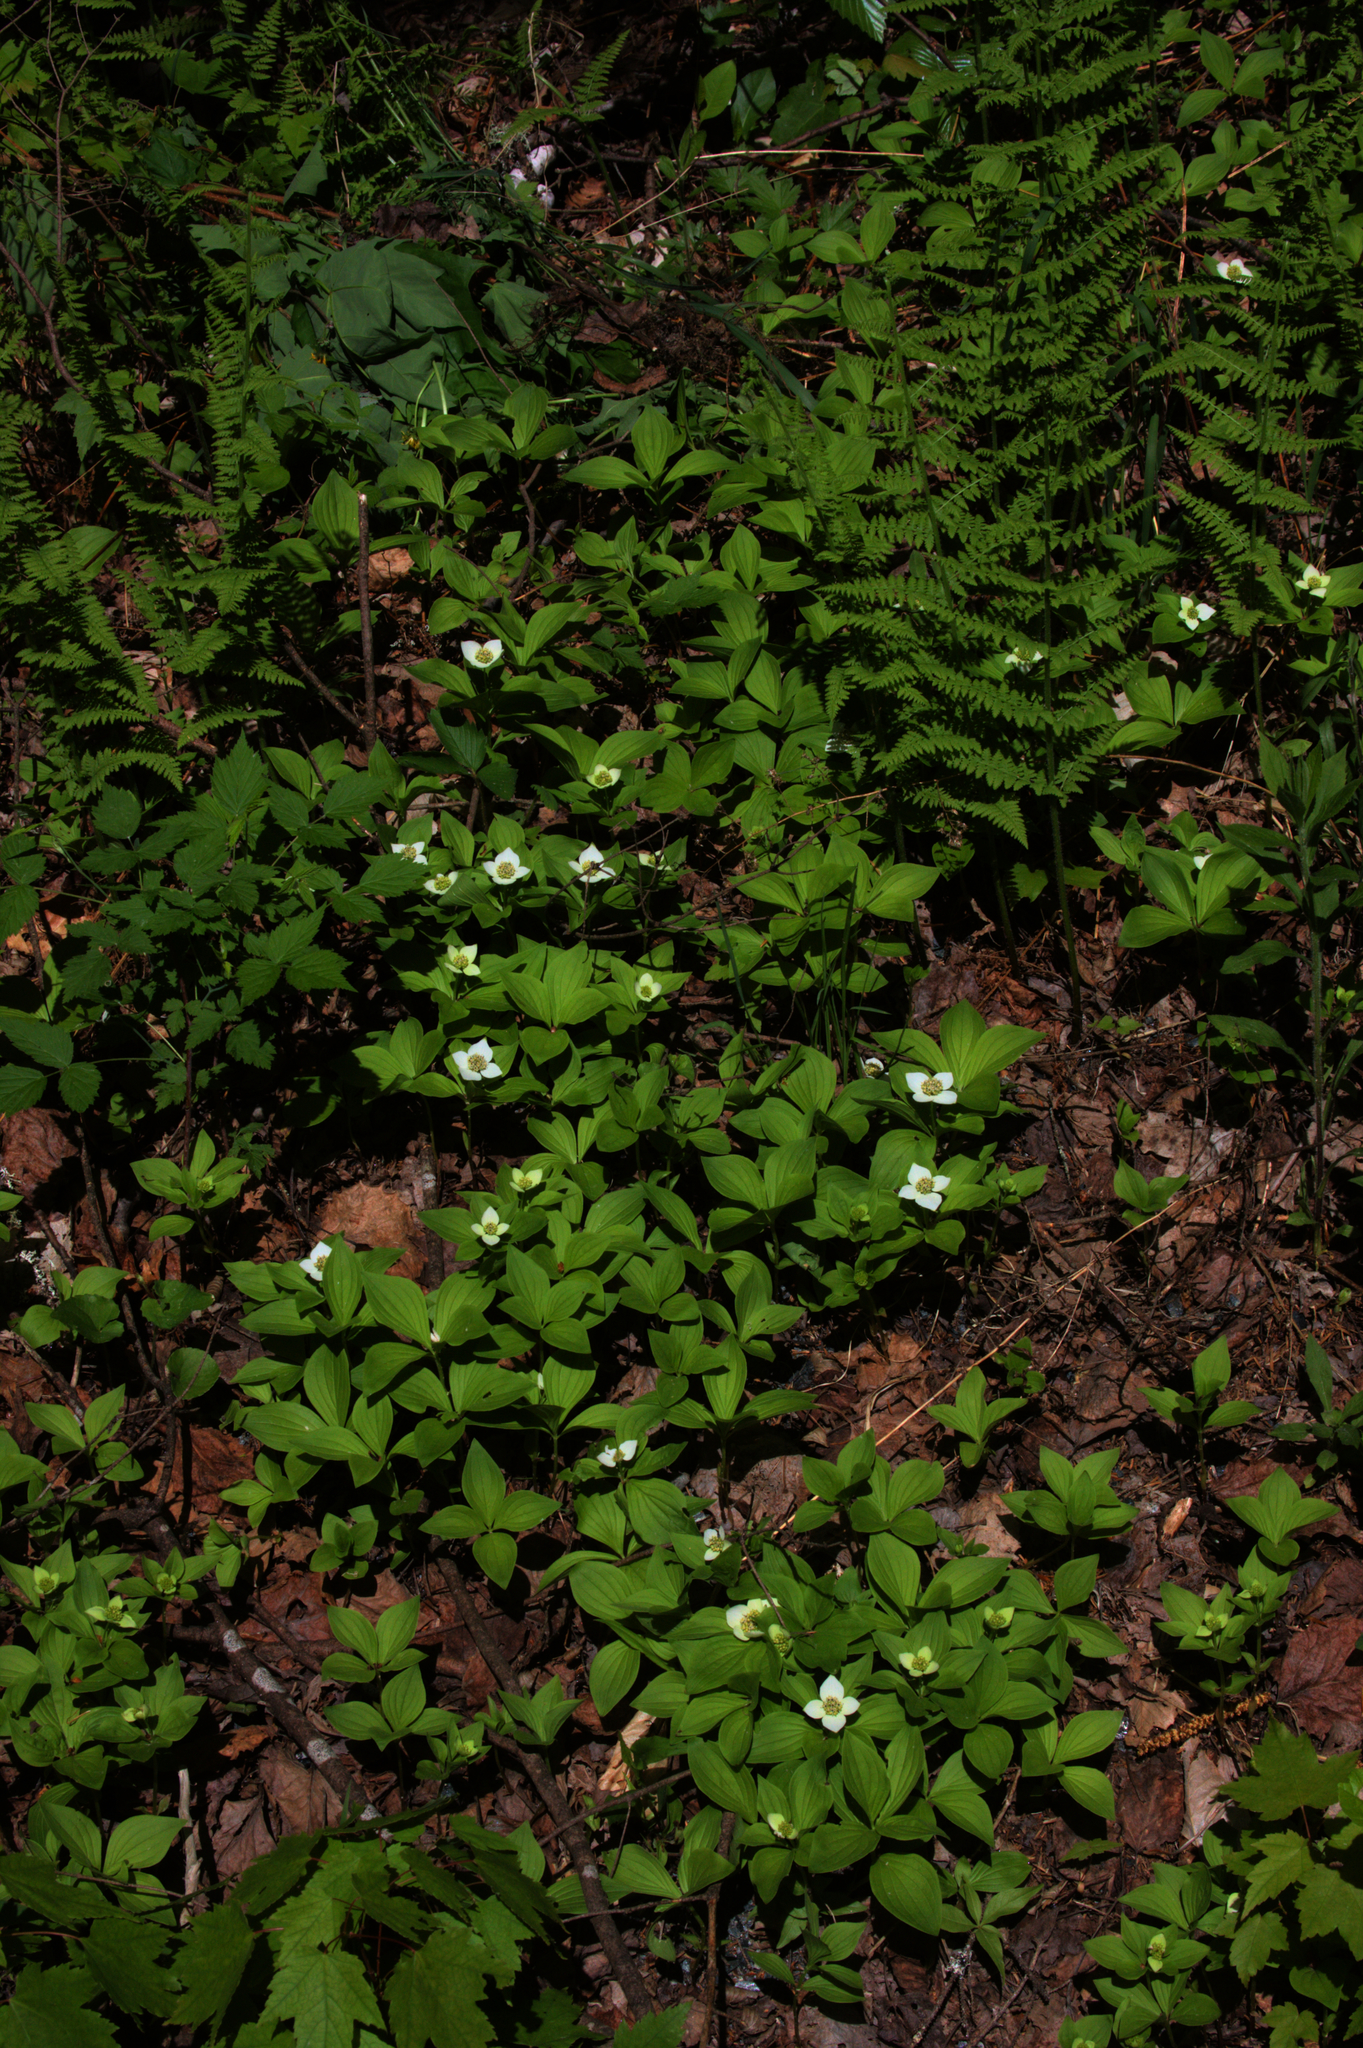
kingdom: Plantae
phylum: Tracheophyta
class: Magnoliopsida
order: Cornales
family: Cornaceae
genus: Cornus
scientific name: Cornus canadensis
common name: Creeping dogwood
